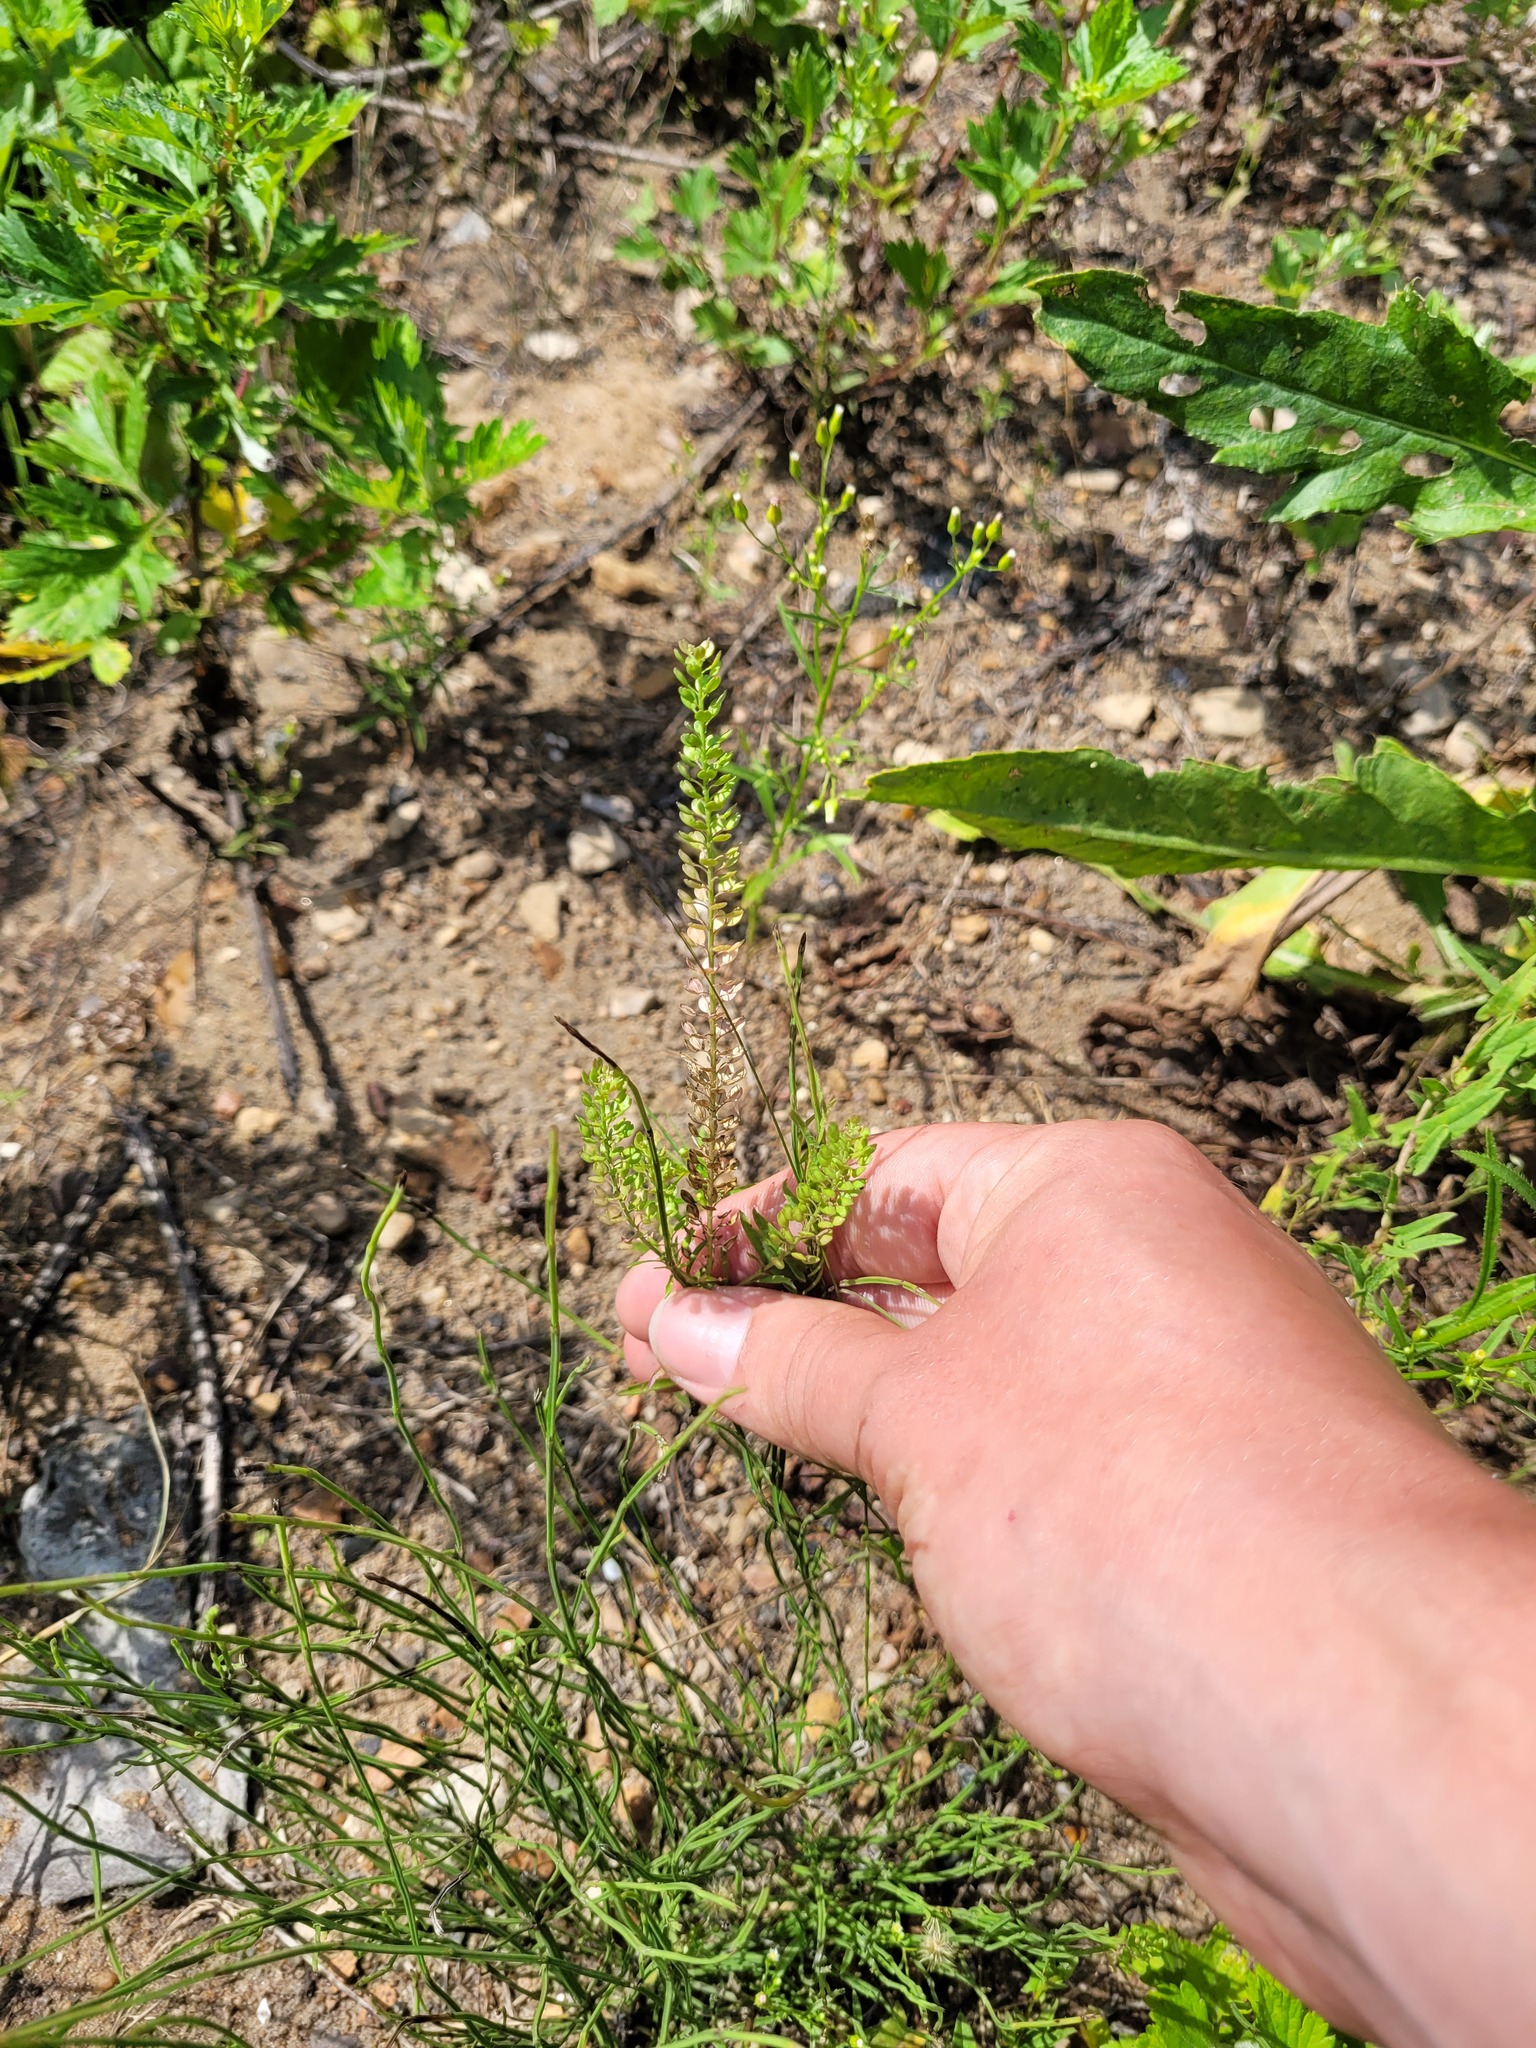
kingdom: Plantae
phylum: Tracheophyta
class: Magnoliopsida
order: Brassicales
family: Brassicaceae
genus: Lepidium
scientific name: Lepidium densiflorum
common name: Miner's pepperwort
